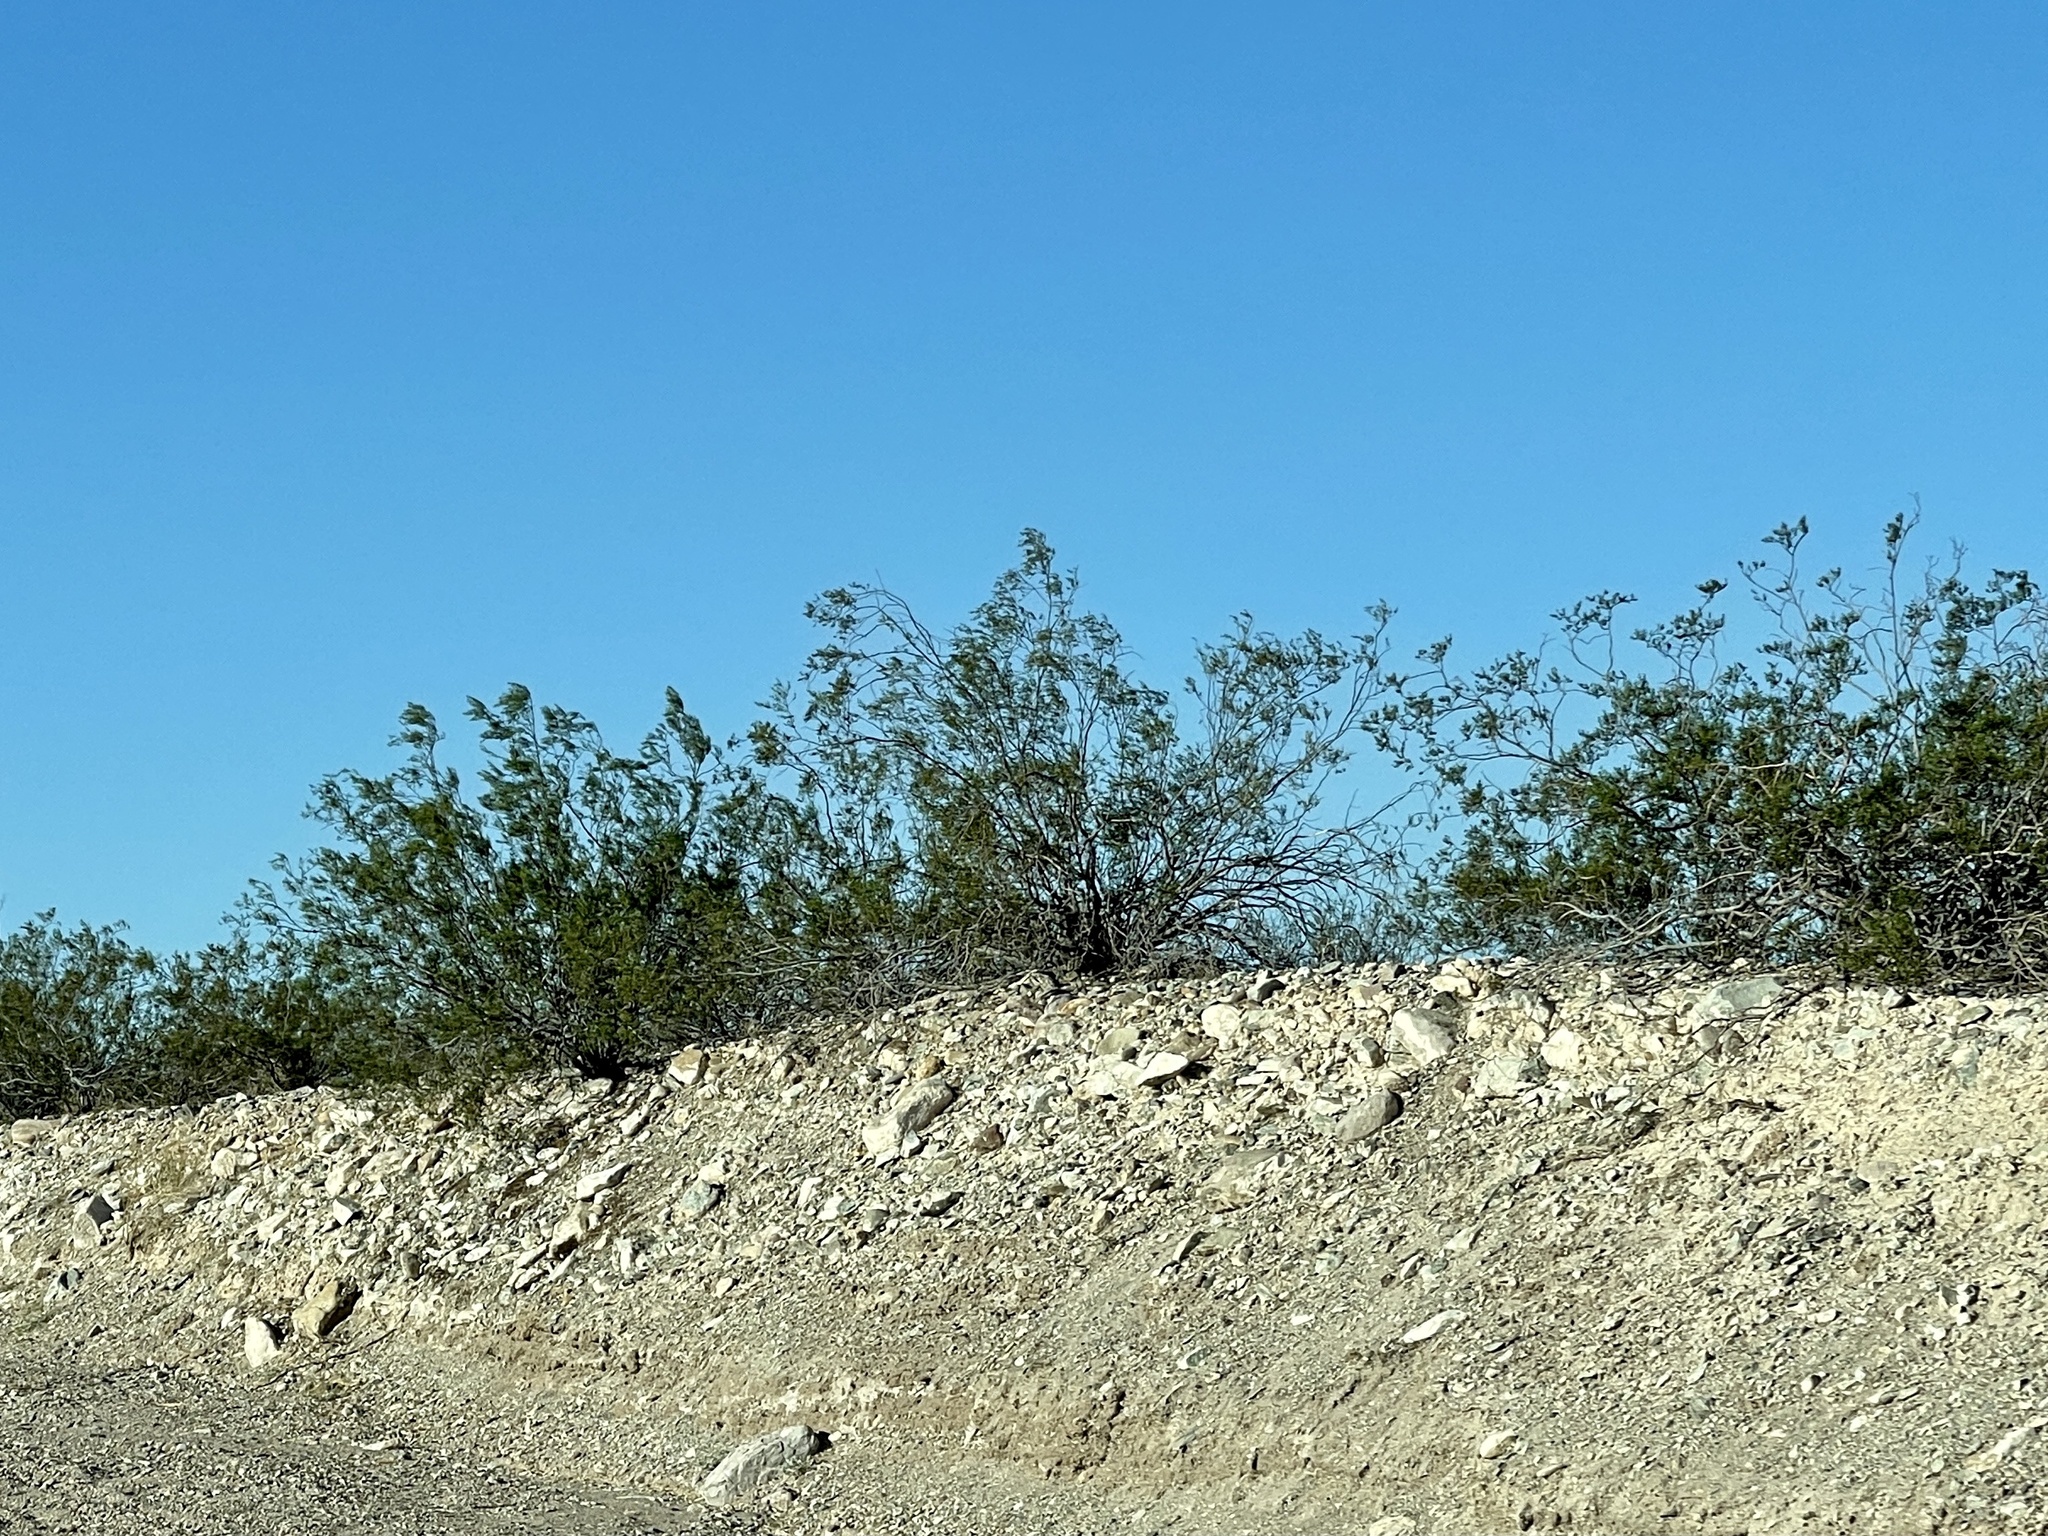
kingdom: Plantae
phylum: Tracheophyta
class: Magnoliopsida
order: Zygophyllales
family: Zygophyllaceae
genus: Larrea
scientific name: Larrea tridentata
